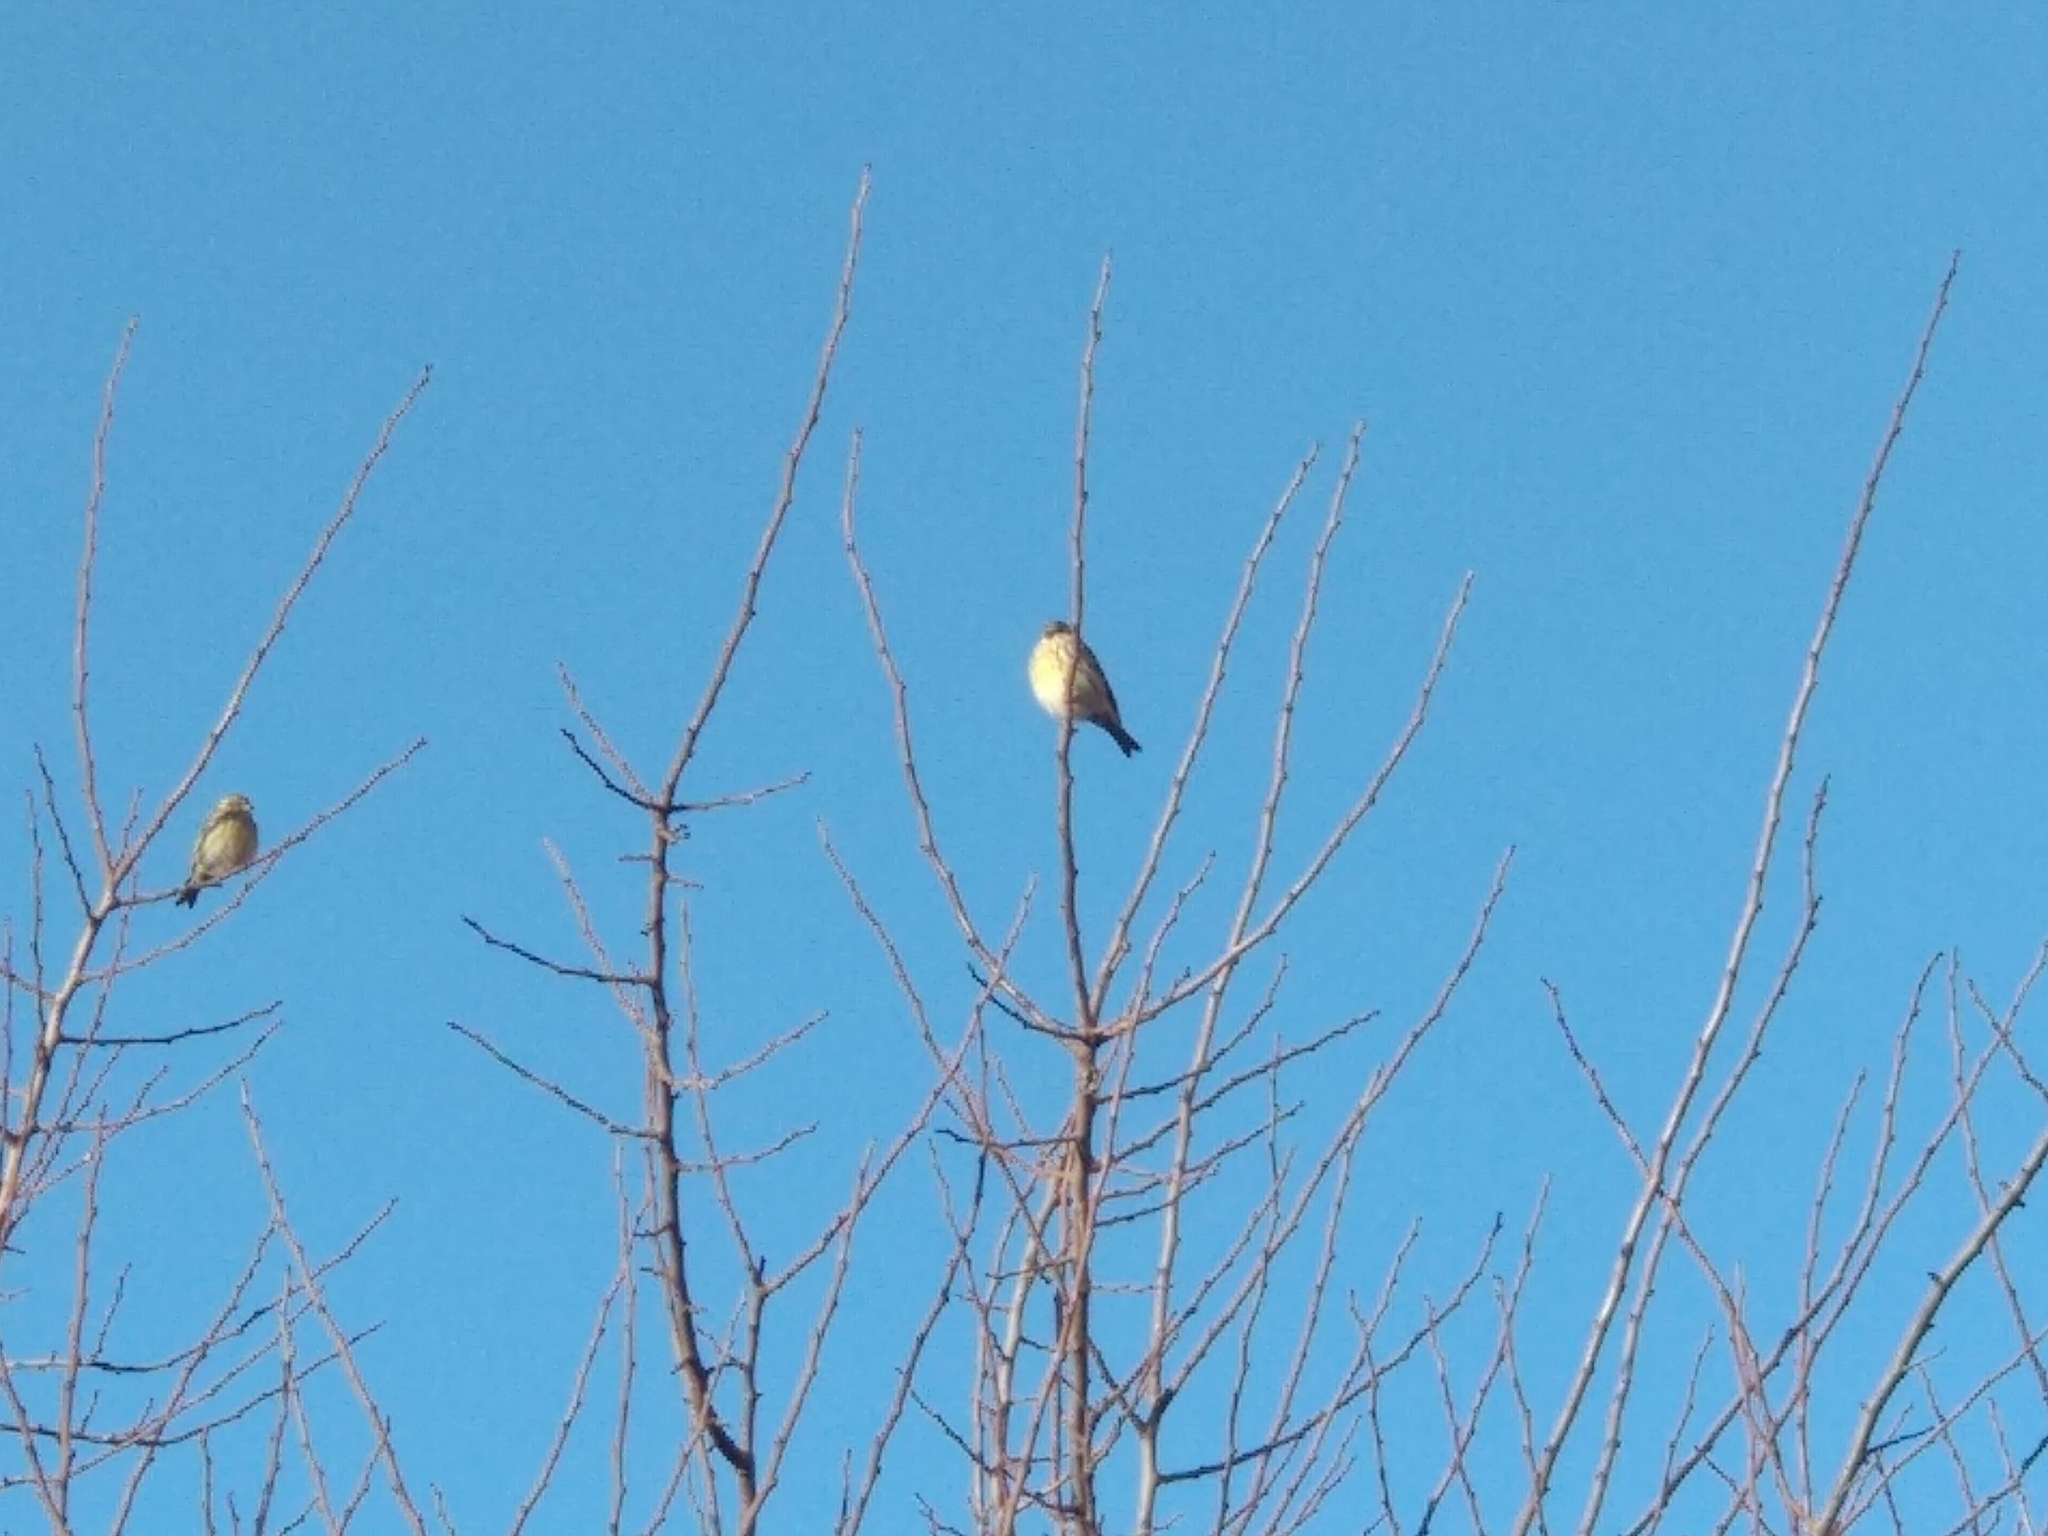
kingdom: Animalia
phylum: Chordata
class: Aves
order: Passeriformes
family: Fringillidae
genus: Serinus
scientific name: Serinus serinus
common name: European serin
